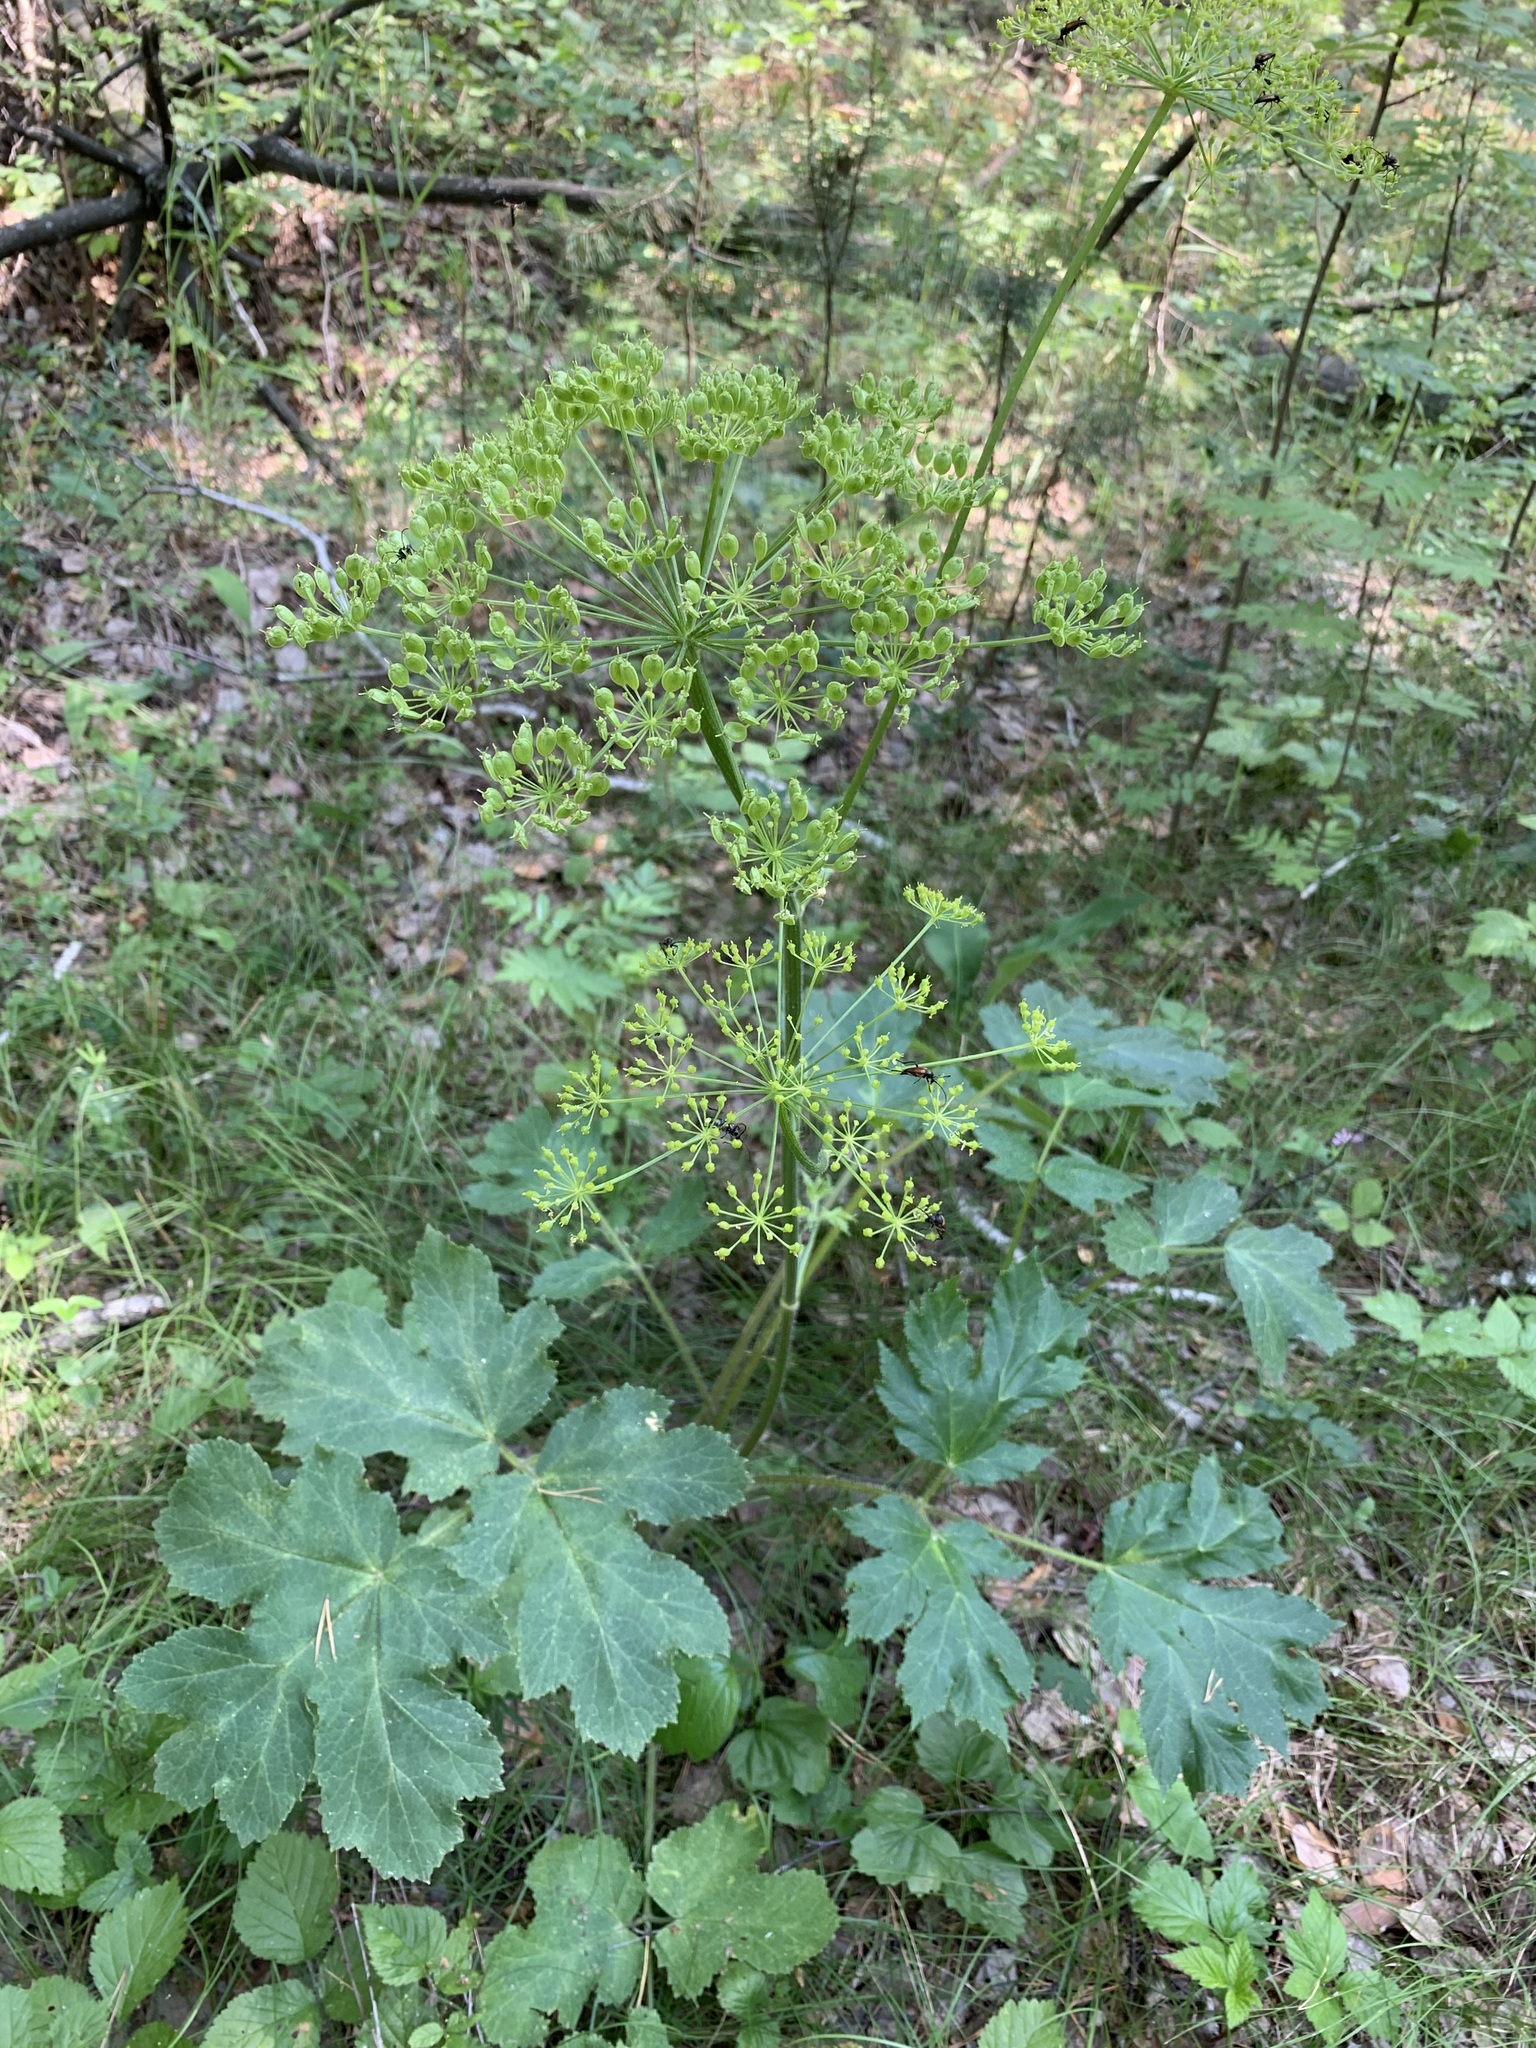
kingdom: Plantae
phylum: Tracheophyta
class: Magnoliopsida
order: Apiales
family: Apiaceae
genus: Heracleum
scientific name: Heracleum sphondylium
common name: Hogweed
